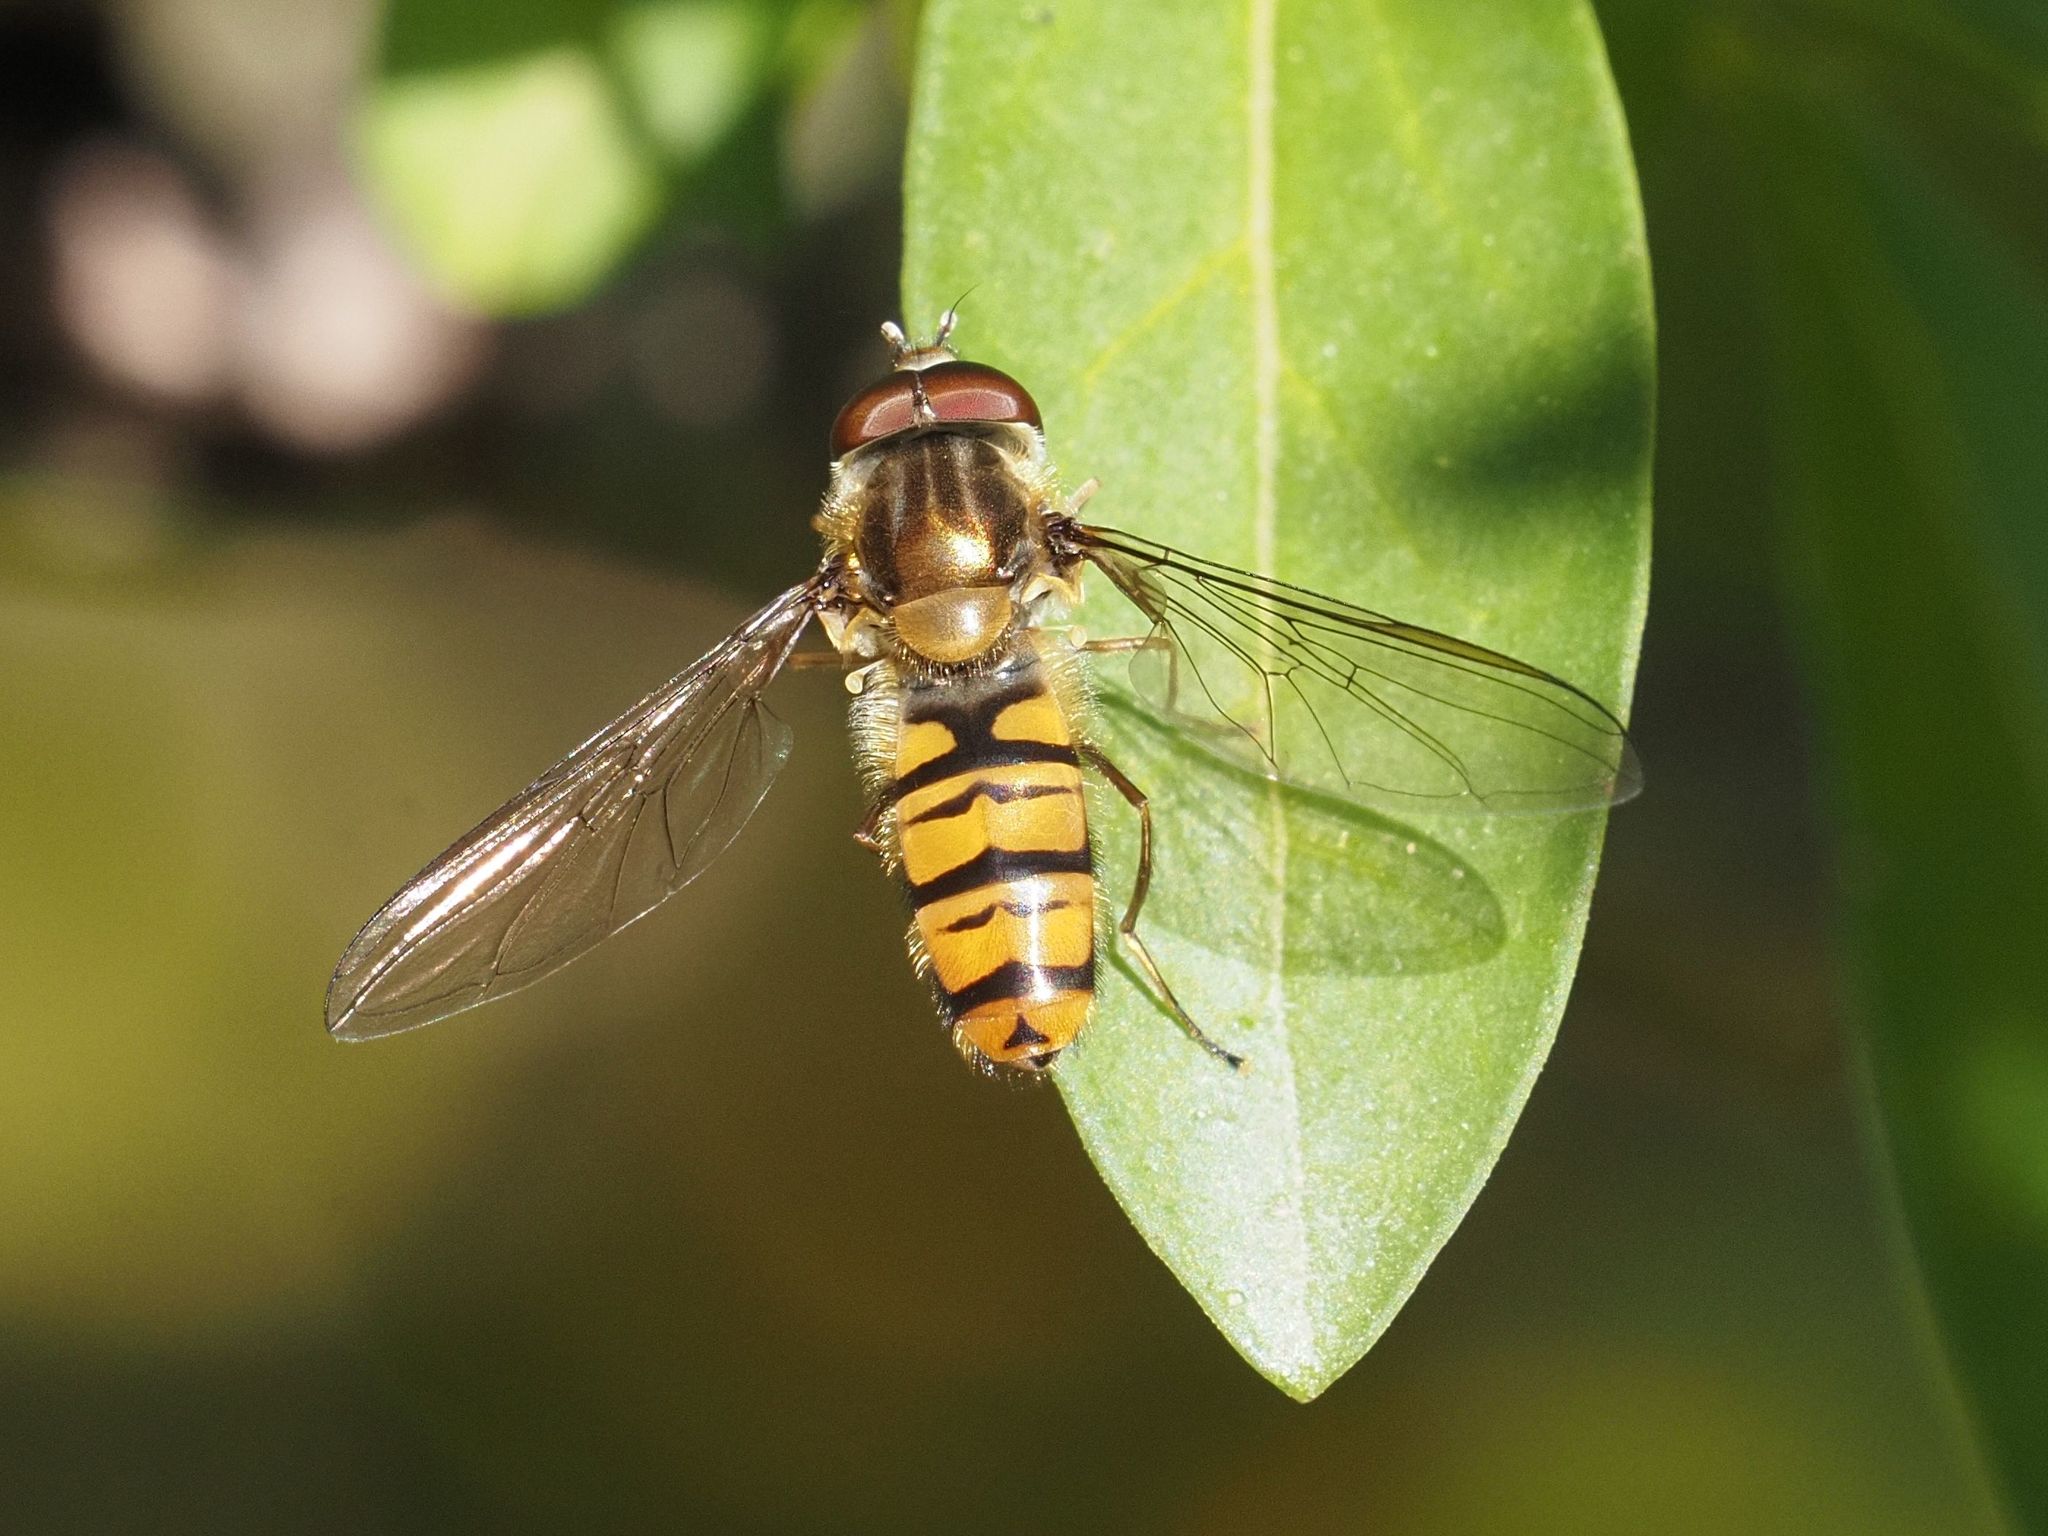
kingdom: Animalia
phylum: Arthropoda
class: Insecta
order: Diptera
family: Syrphidae
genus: Episyrphus
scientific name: Episyrphus balteatus
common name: Marmalade hoverfly
